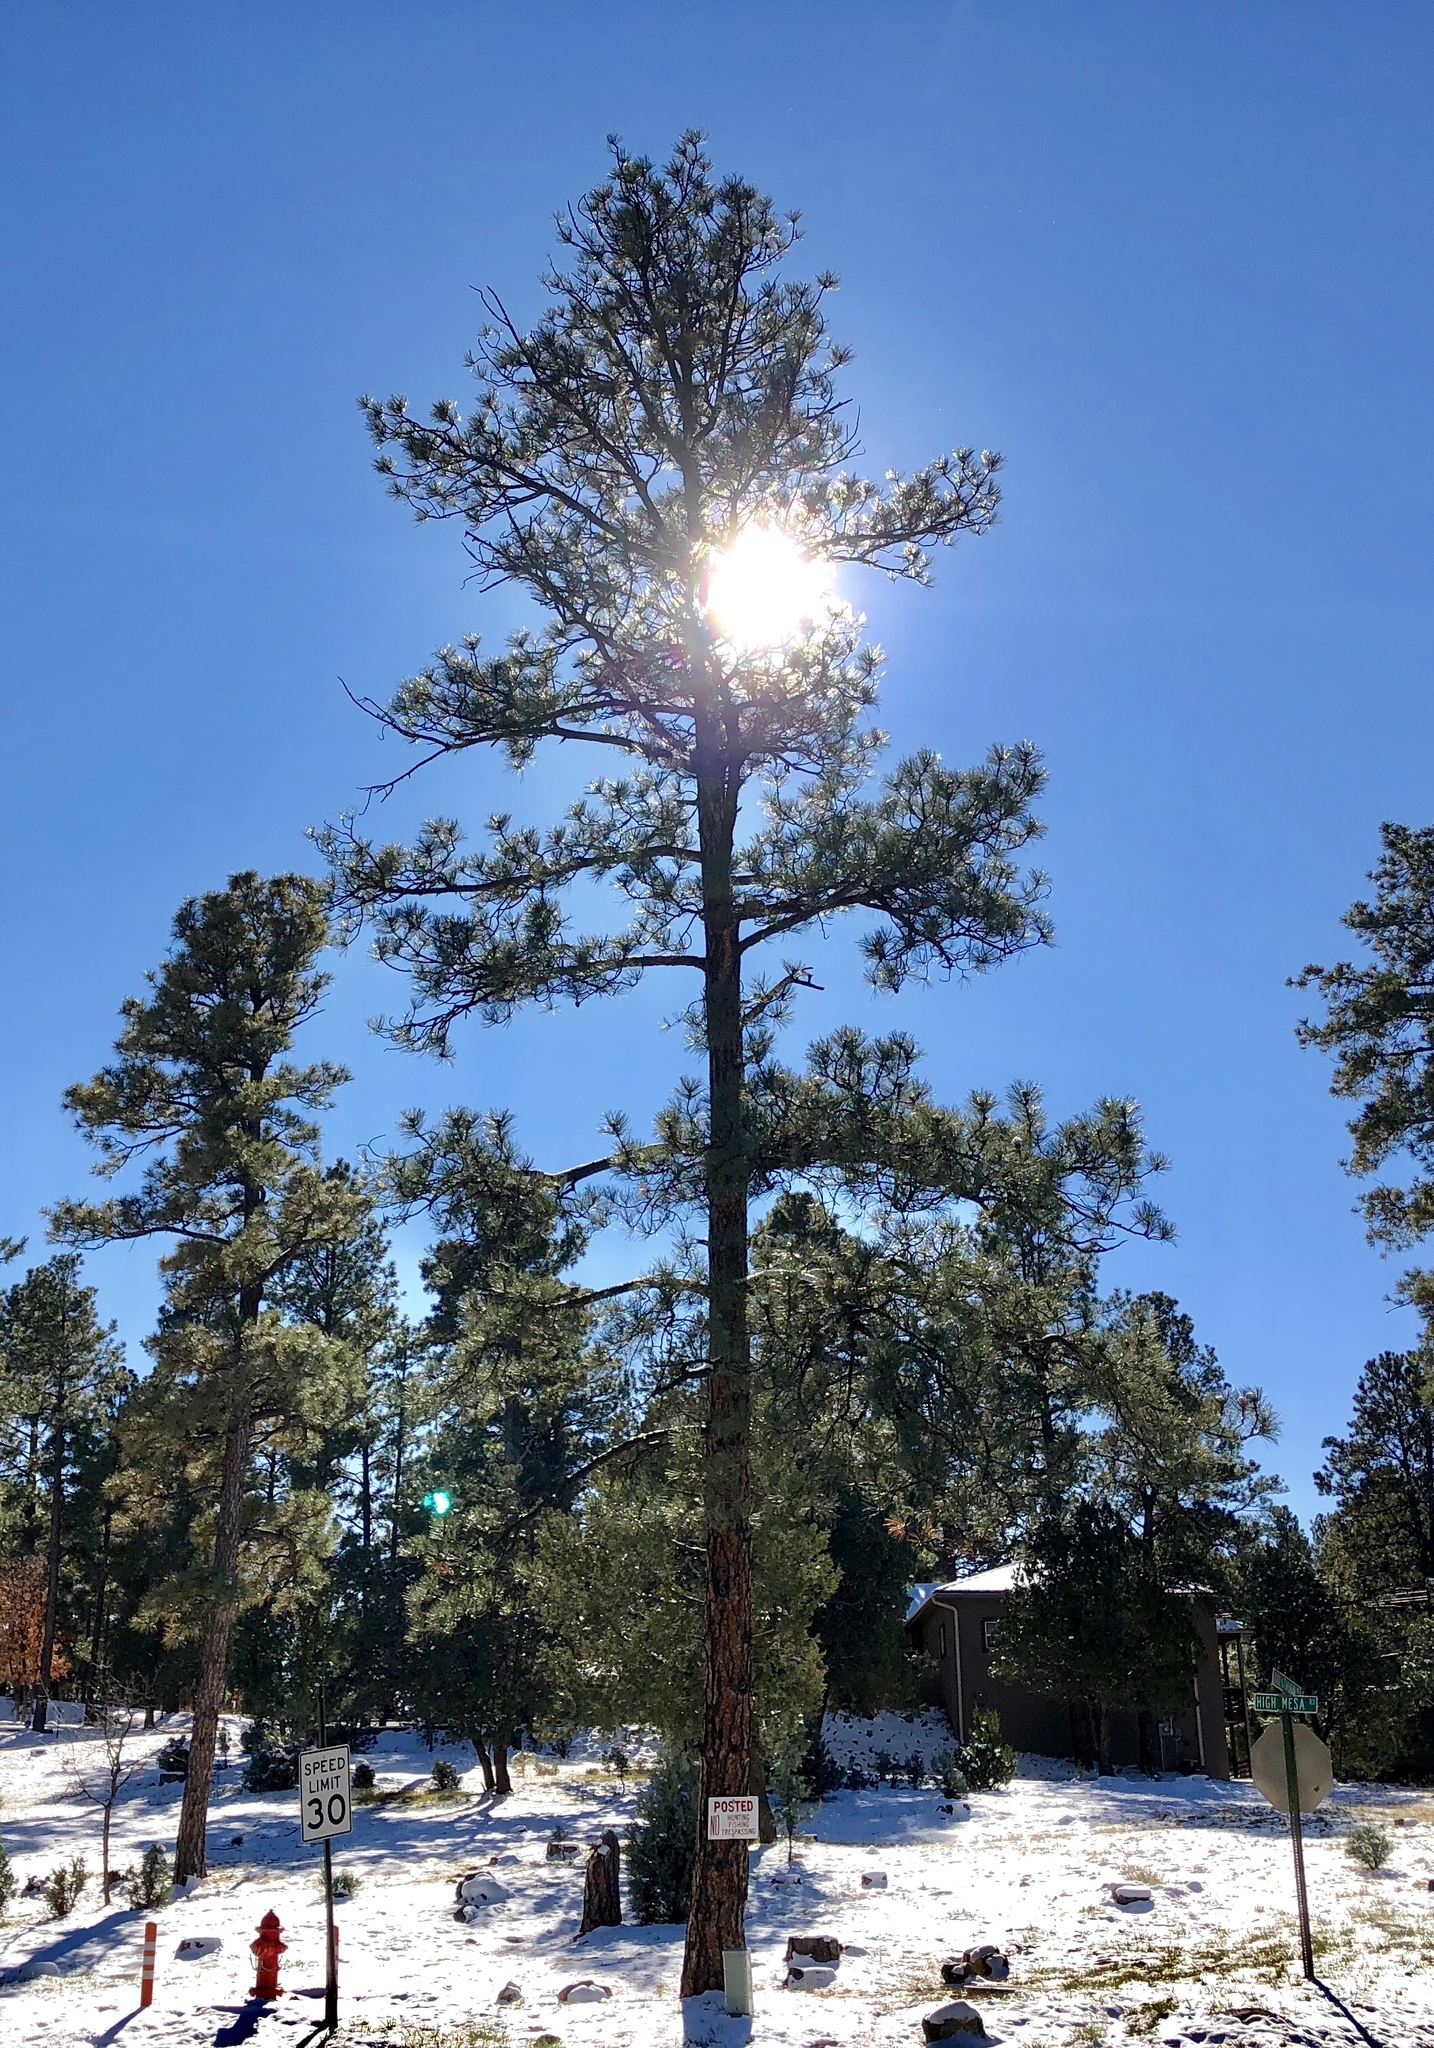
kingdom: Plantae
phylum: Tracheophyta
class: Pinopsida
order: Pinales
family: Pinaceae
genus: Pinus
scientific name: Pinus ponderosa
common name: Western yellow-pine
